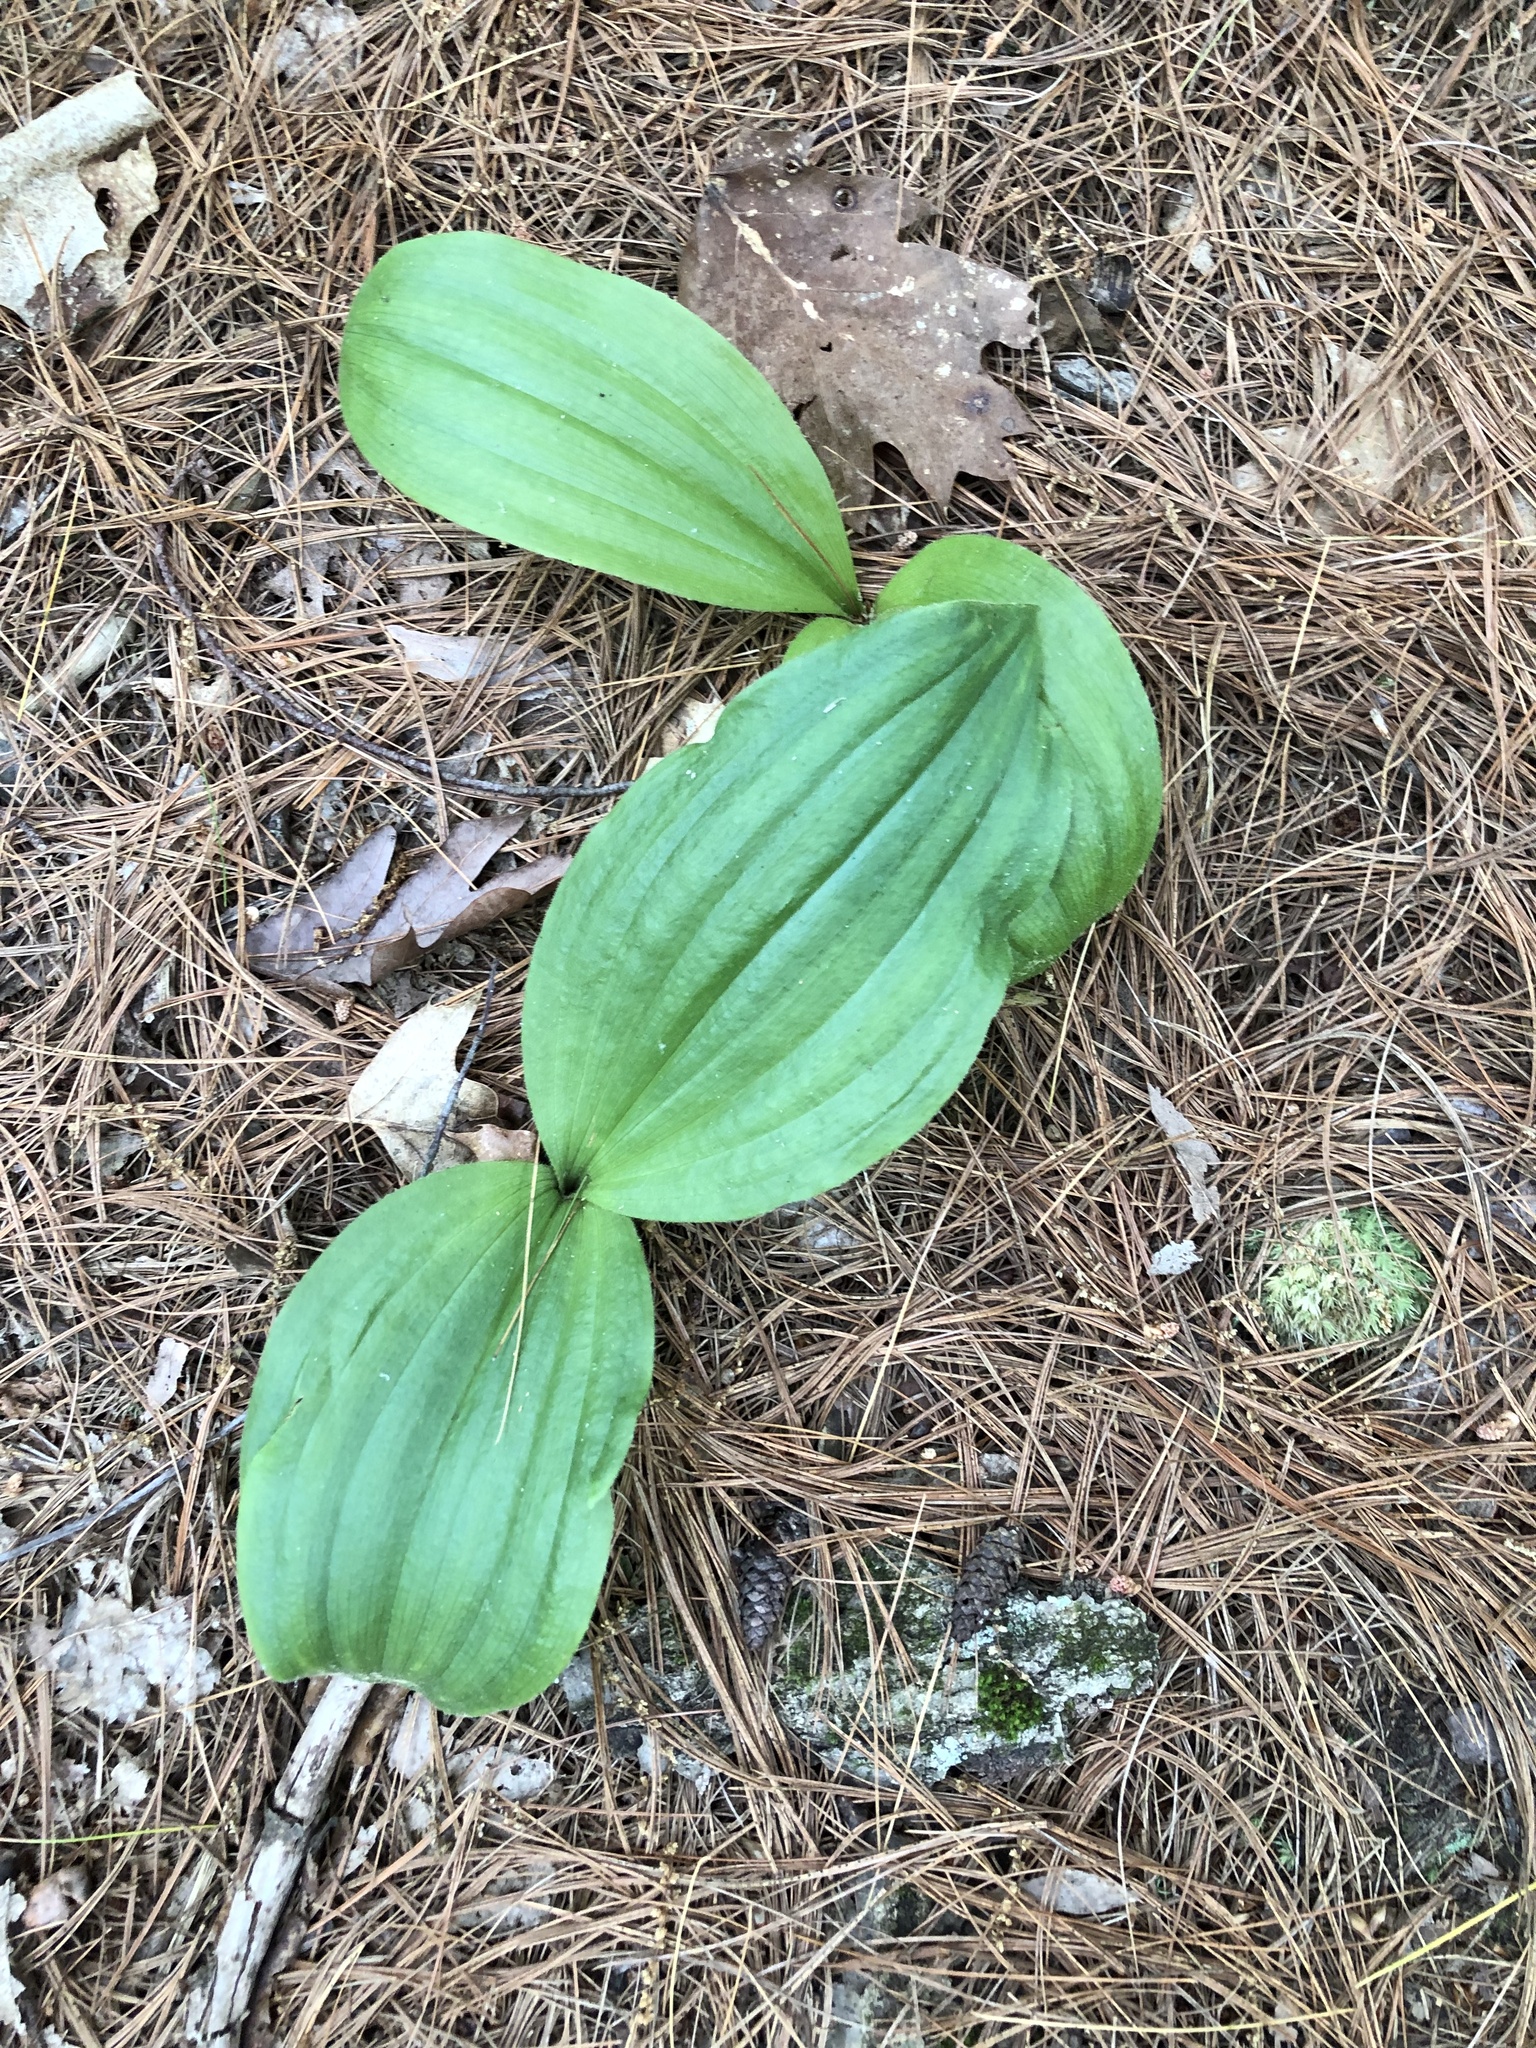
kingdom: Plantae
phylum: Tracheophyta
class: Liliopsida
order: Asparagales
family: Orchidaceae
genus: Cypripedium
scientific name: Cypripedium acaule
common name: Pink lady's-slipper
